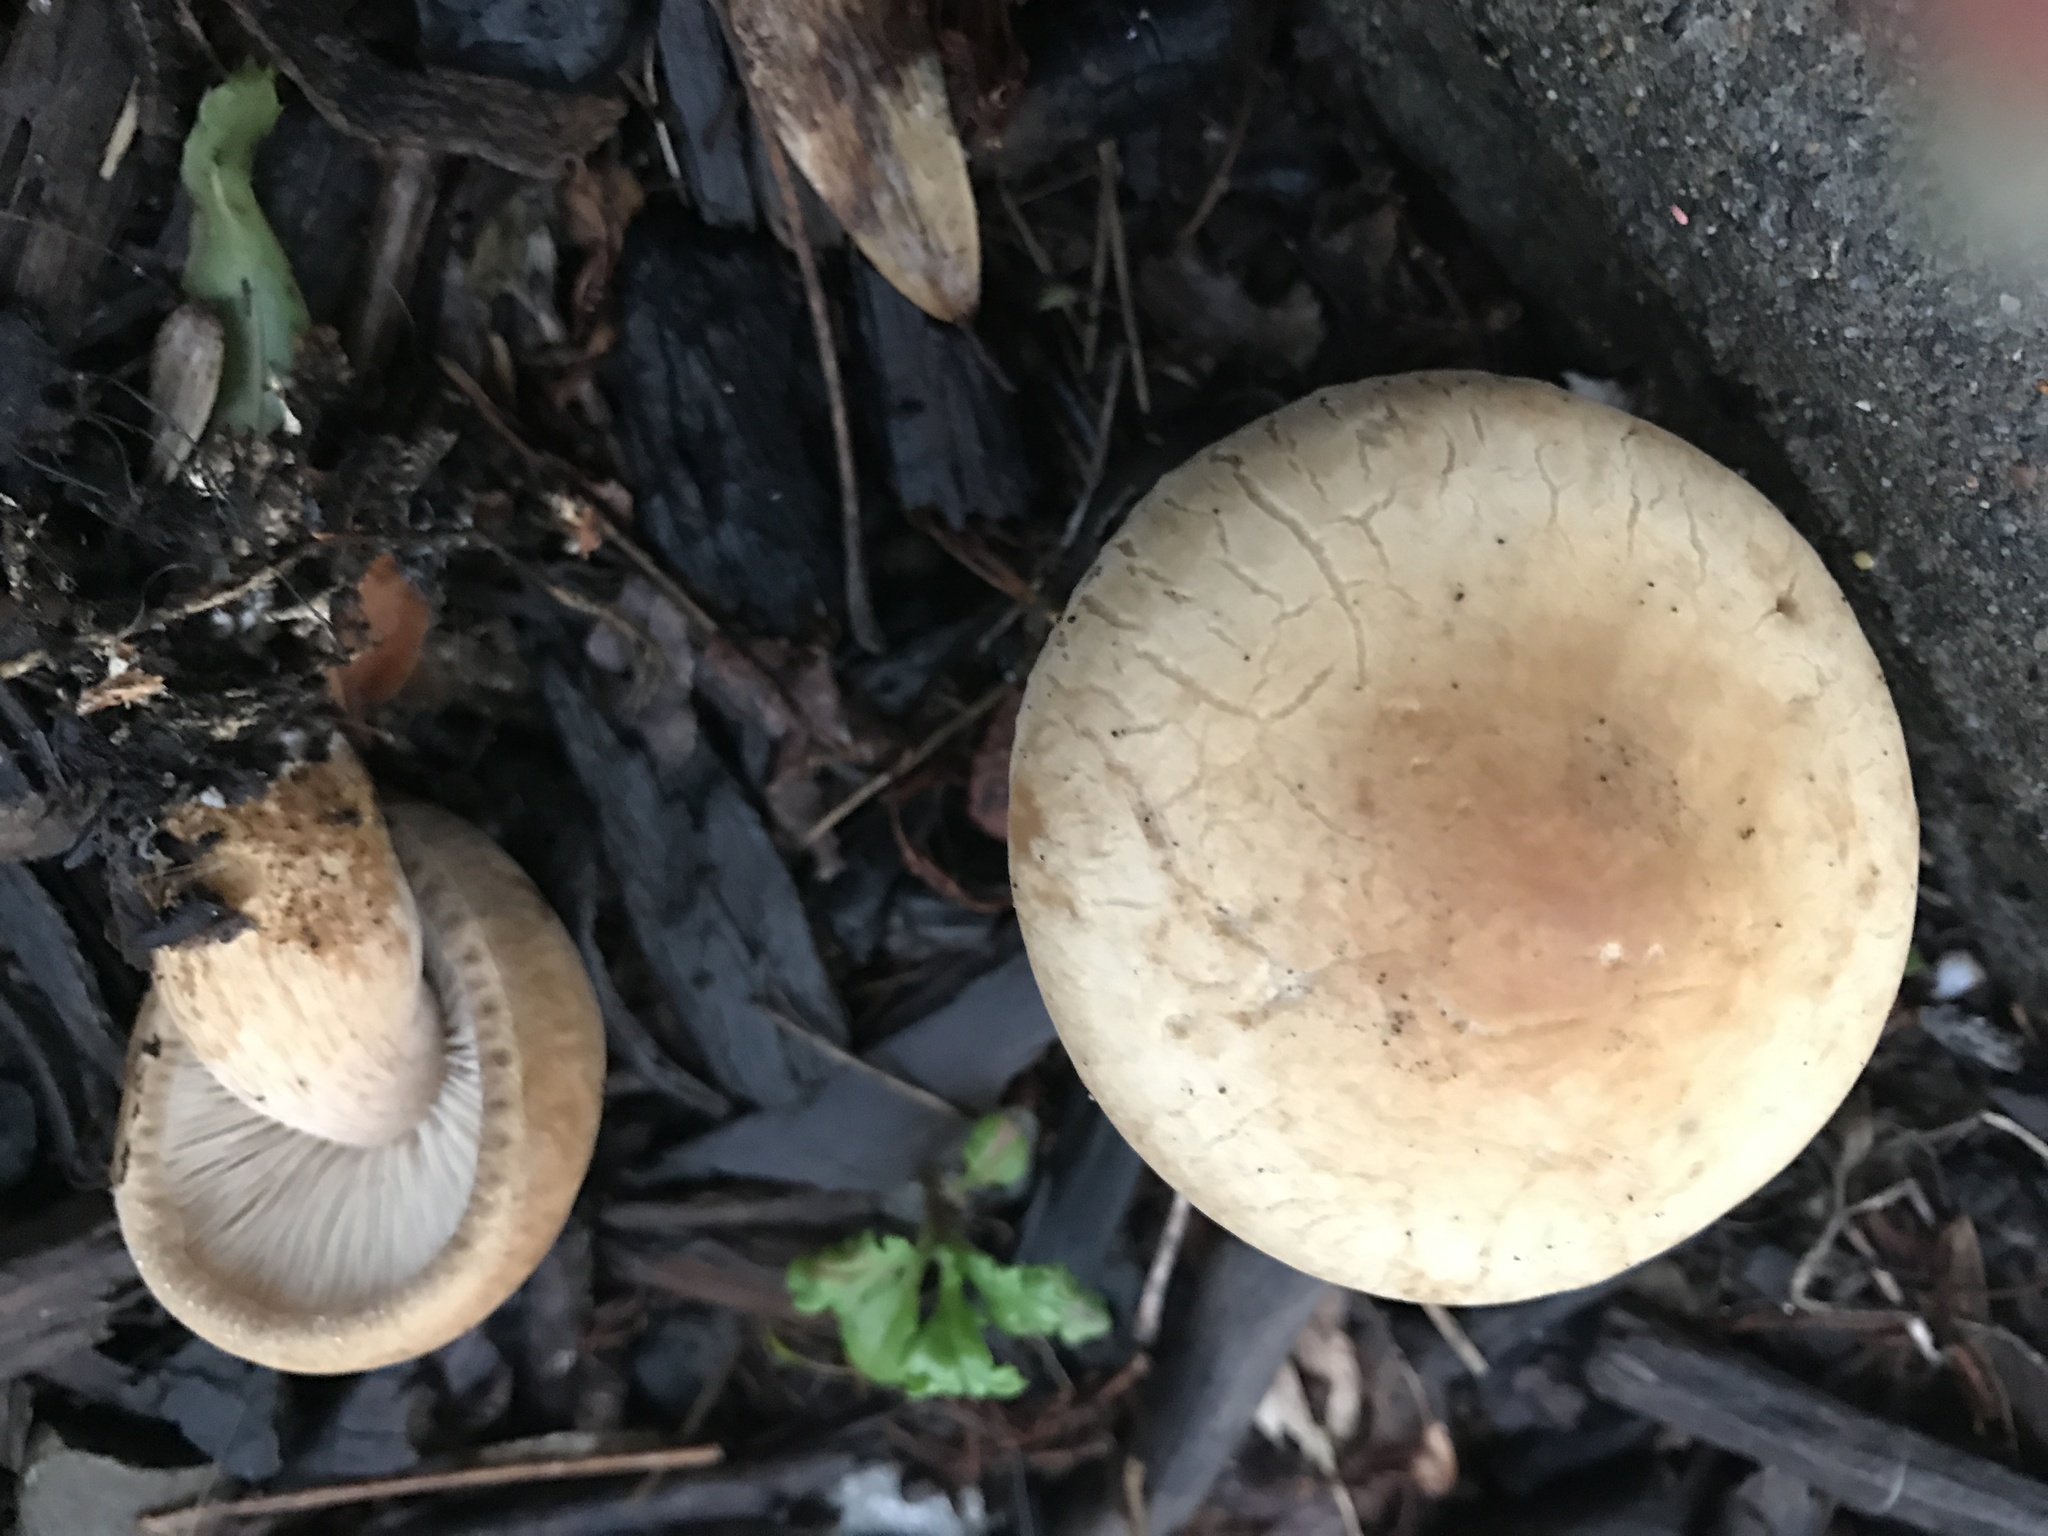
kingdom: Fungi
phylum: Basidiomycota
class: Agaricomycetes
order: Agaricales
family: Strophariaceae
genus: Agrocybe
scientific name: Agrocybe putaminum
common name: Mulch fieldcap
